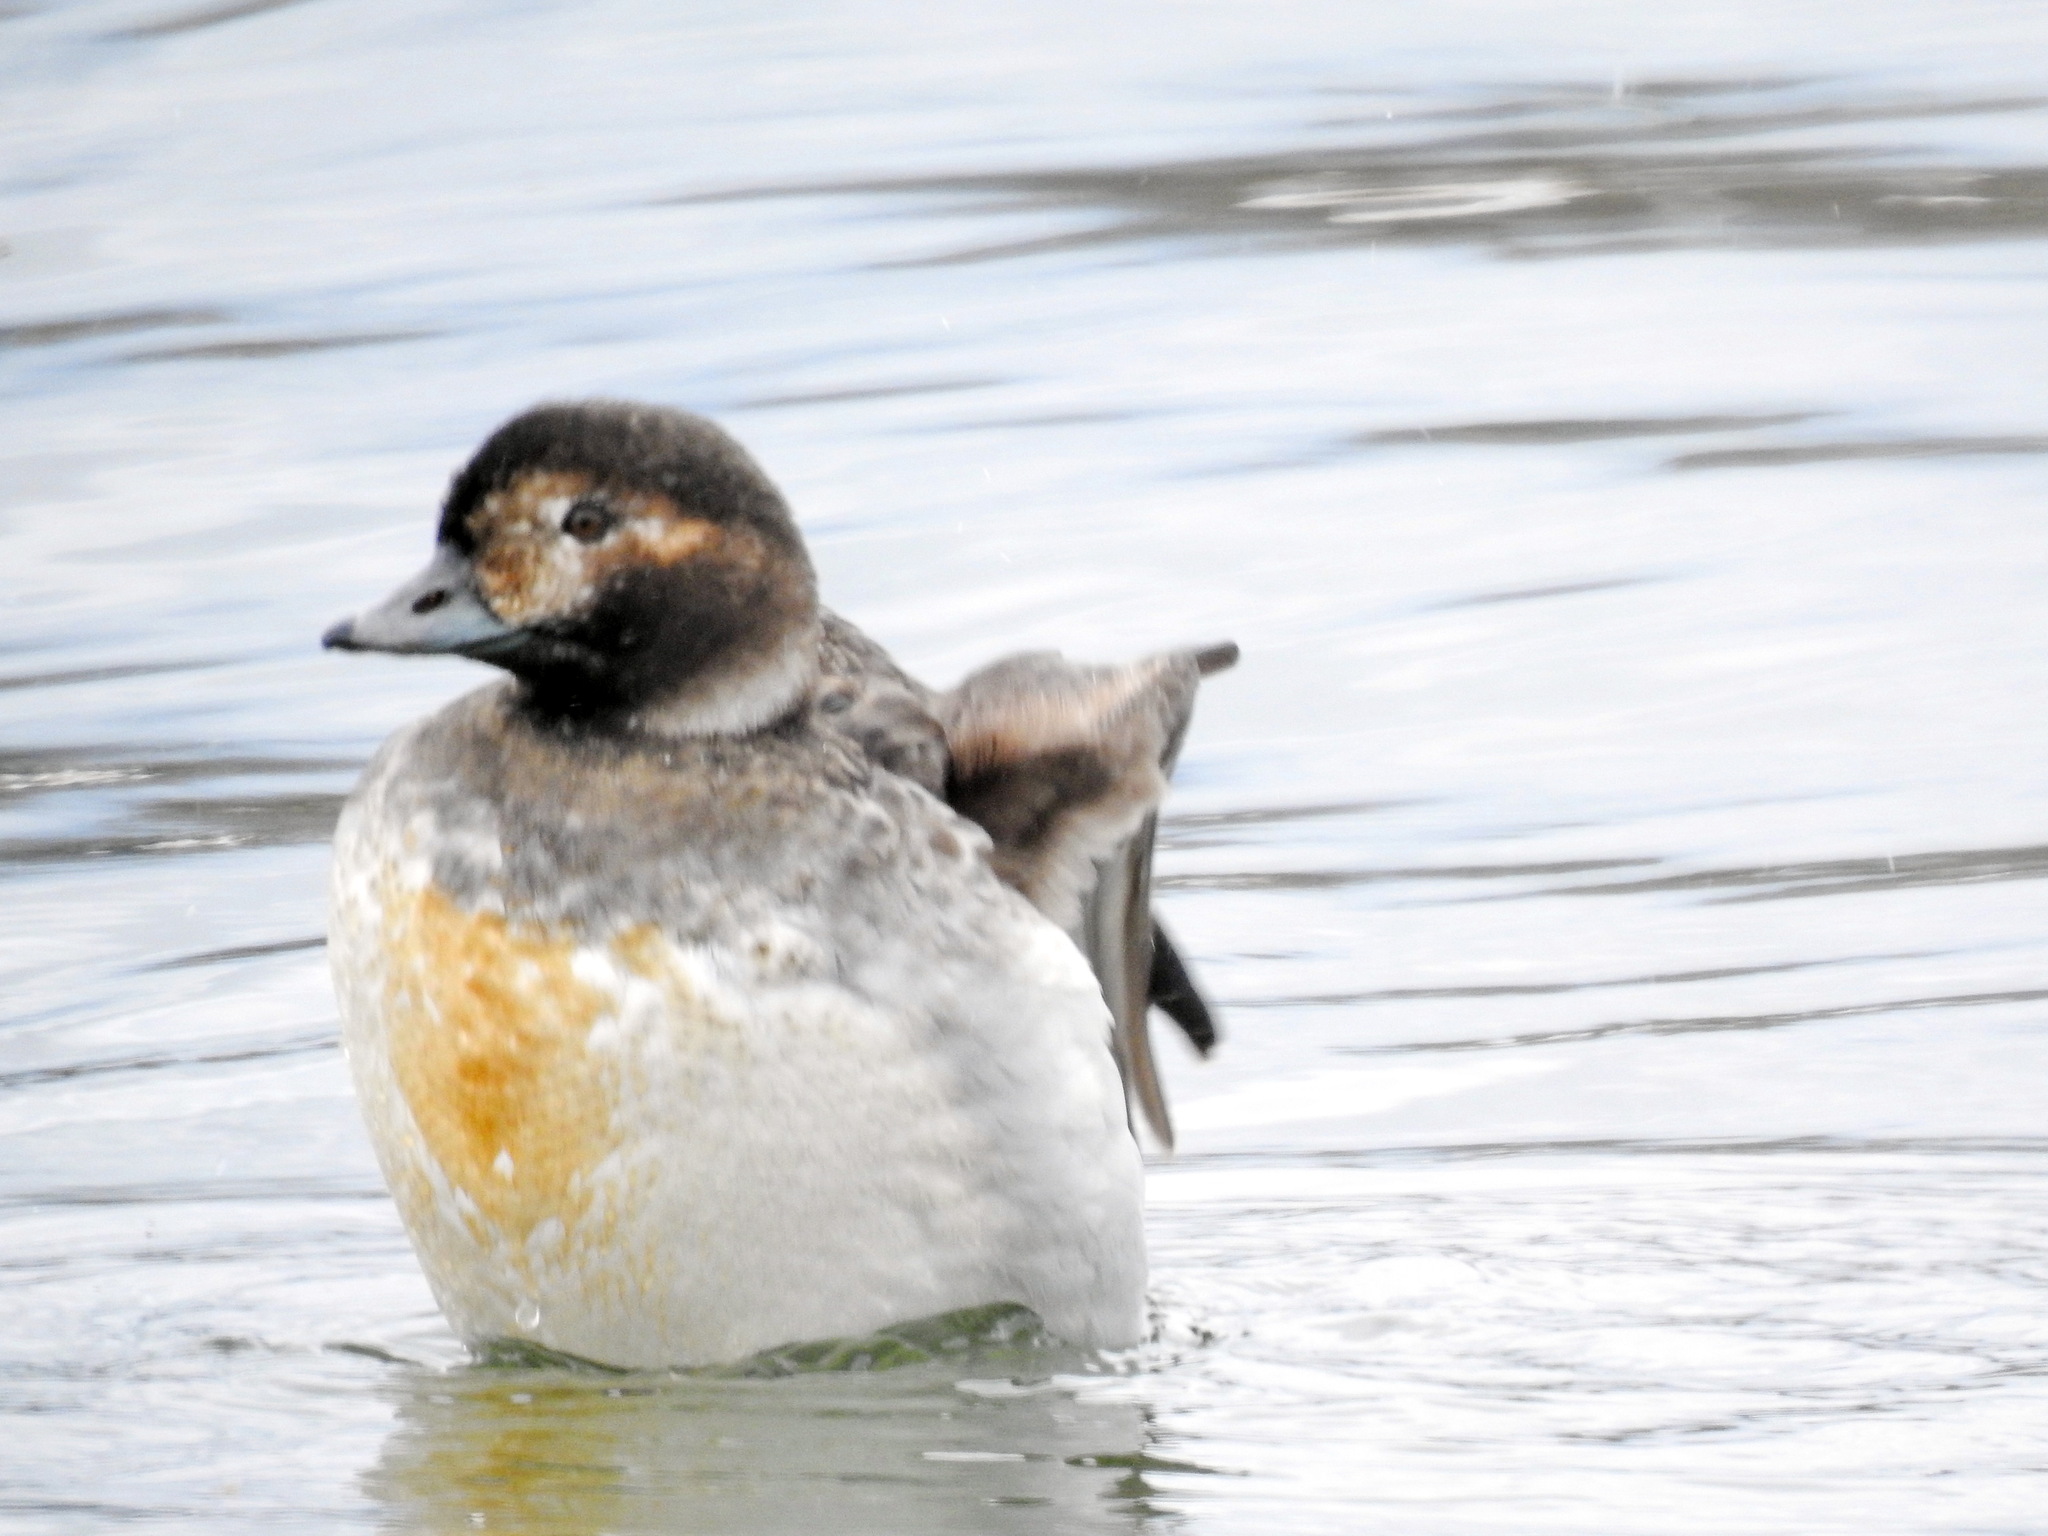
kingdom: Animalia
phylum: Chordata
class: Aves
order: Anseriformes
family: Anatidae
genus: Clangula
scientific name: Clangula hyemalis
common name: Long-tailed duck
